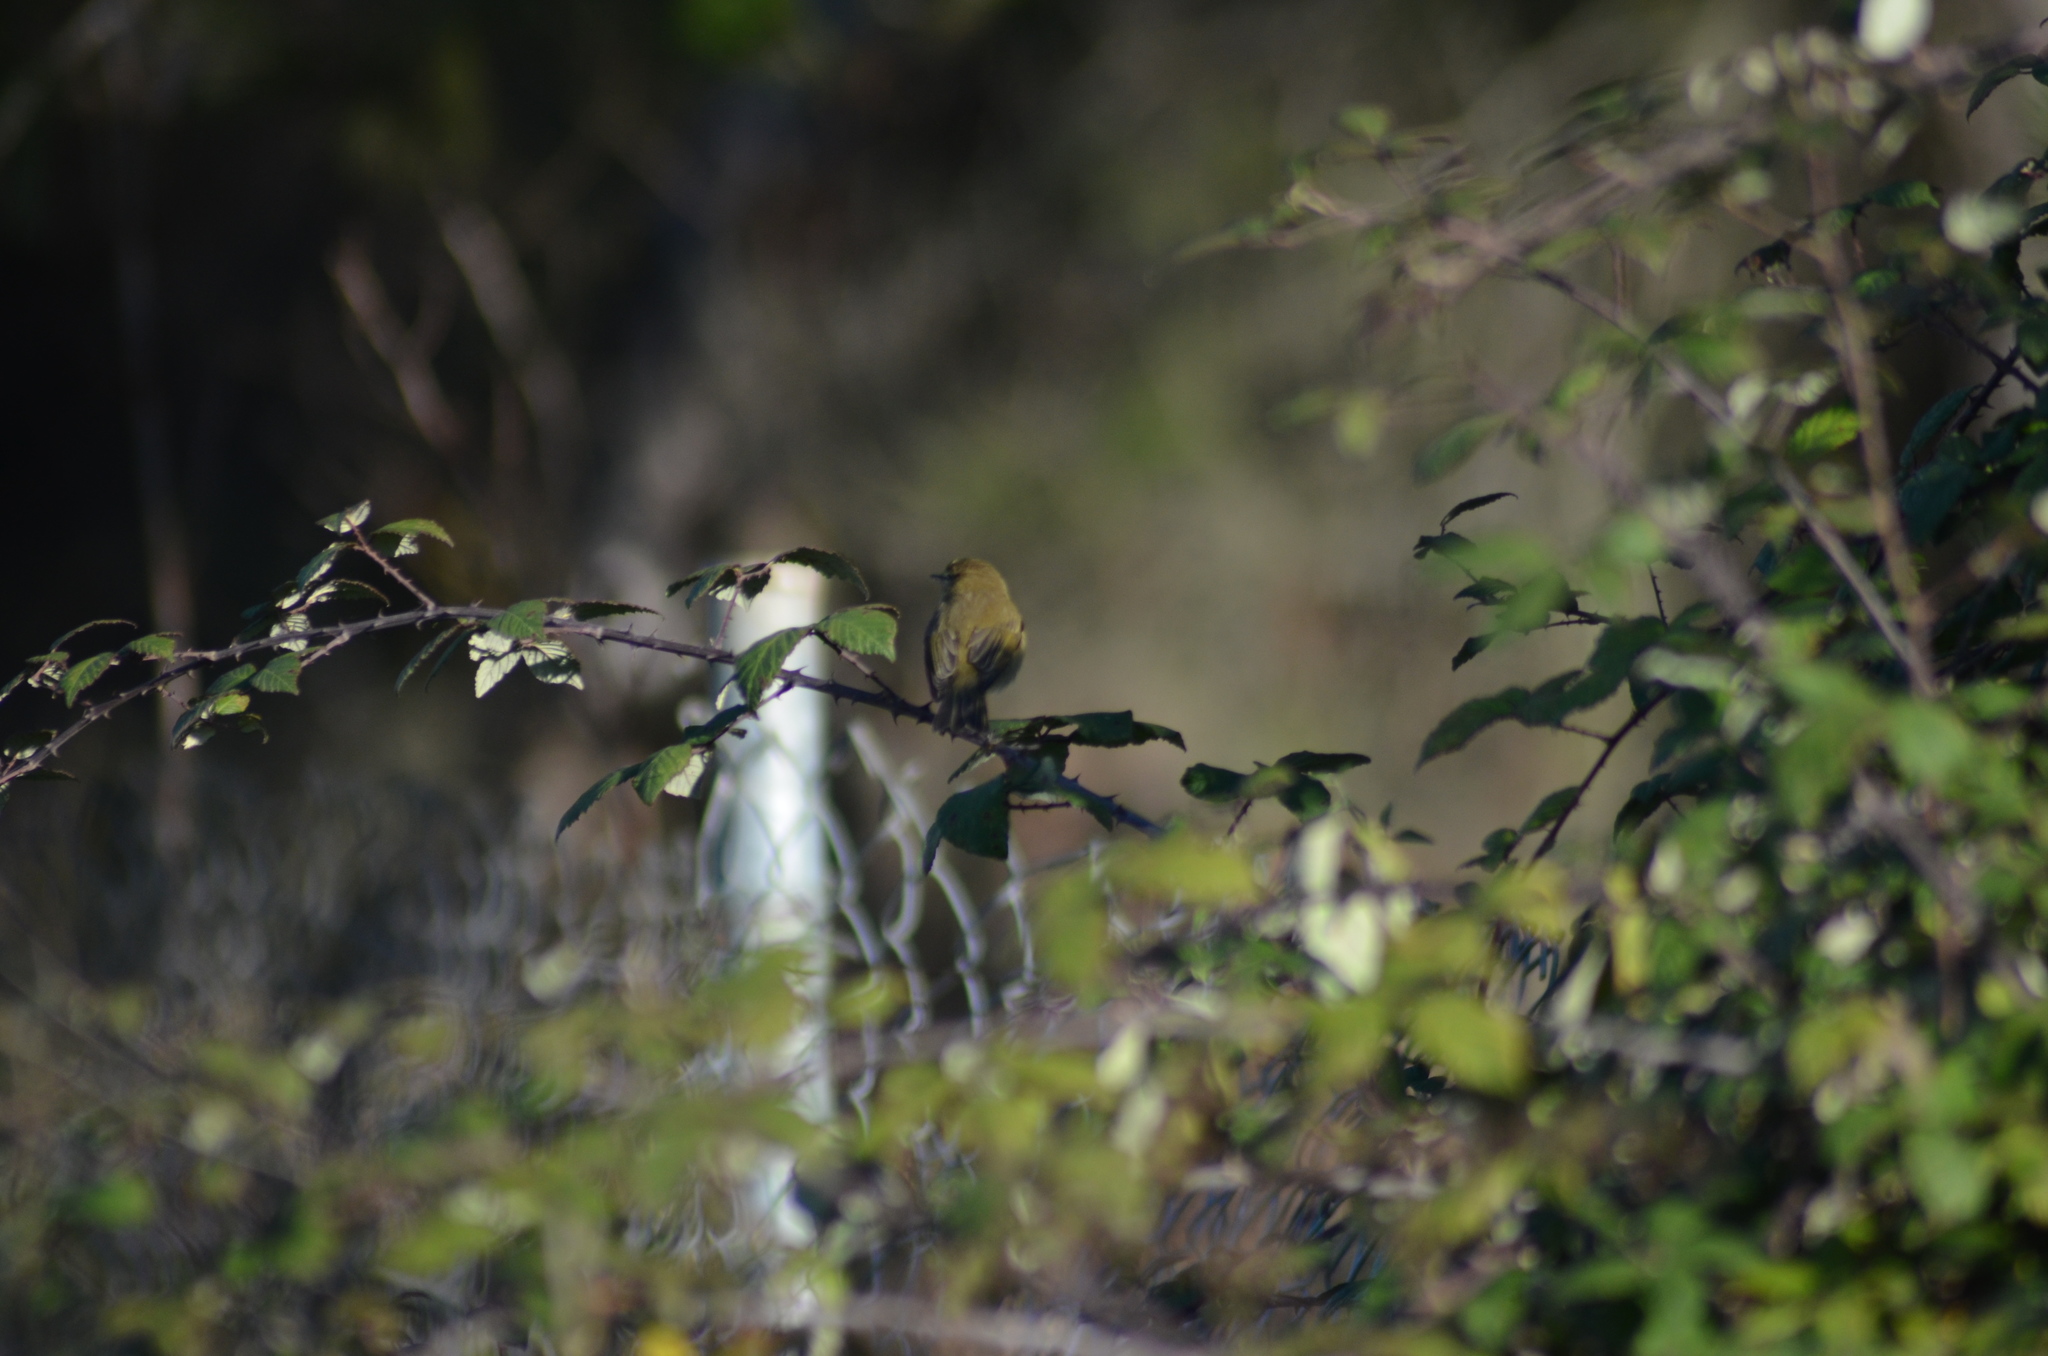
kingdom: Animalia
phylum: Chordata
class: Aves
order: Passeriformes
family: Phylloscopidae
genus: Phylloscopus
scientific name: Phylloscopus collybita
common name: Common chiffchaff
